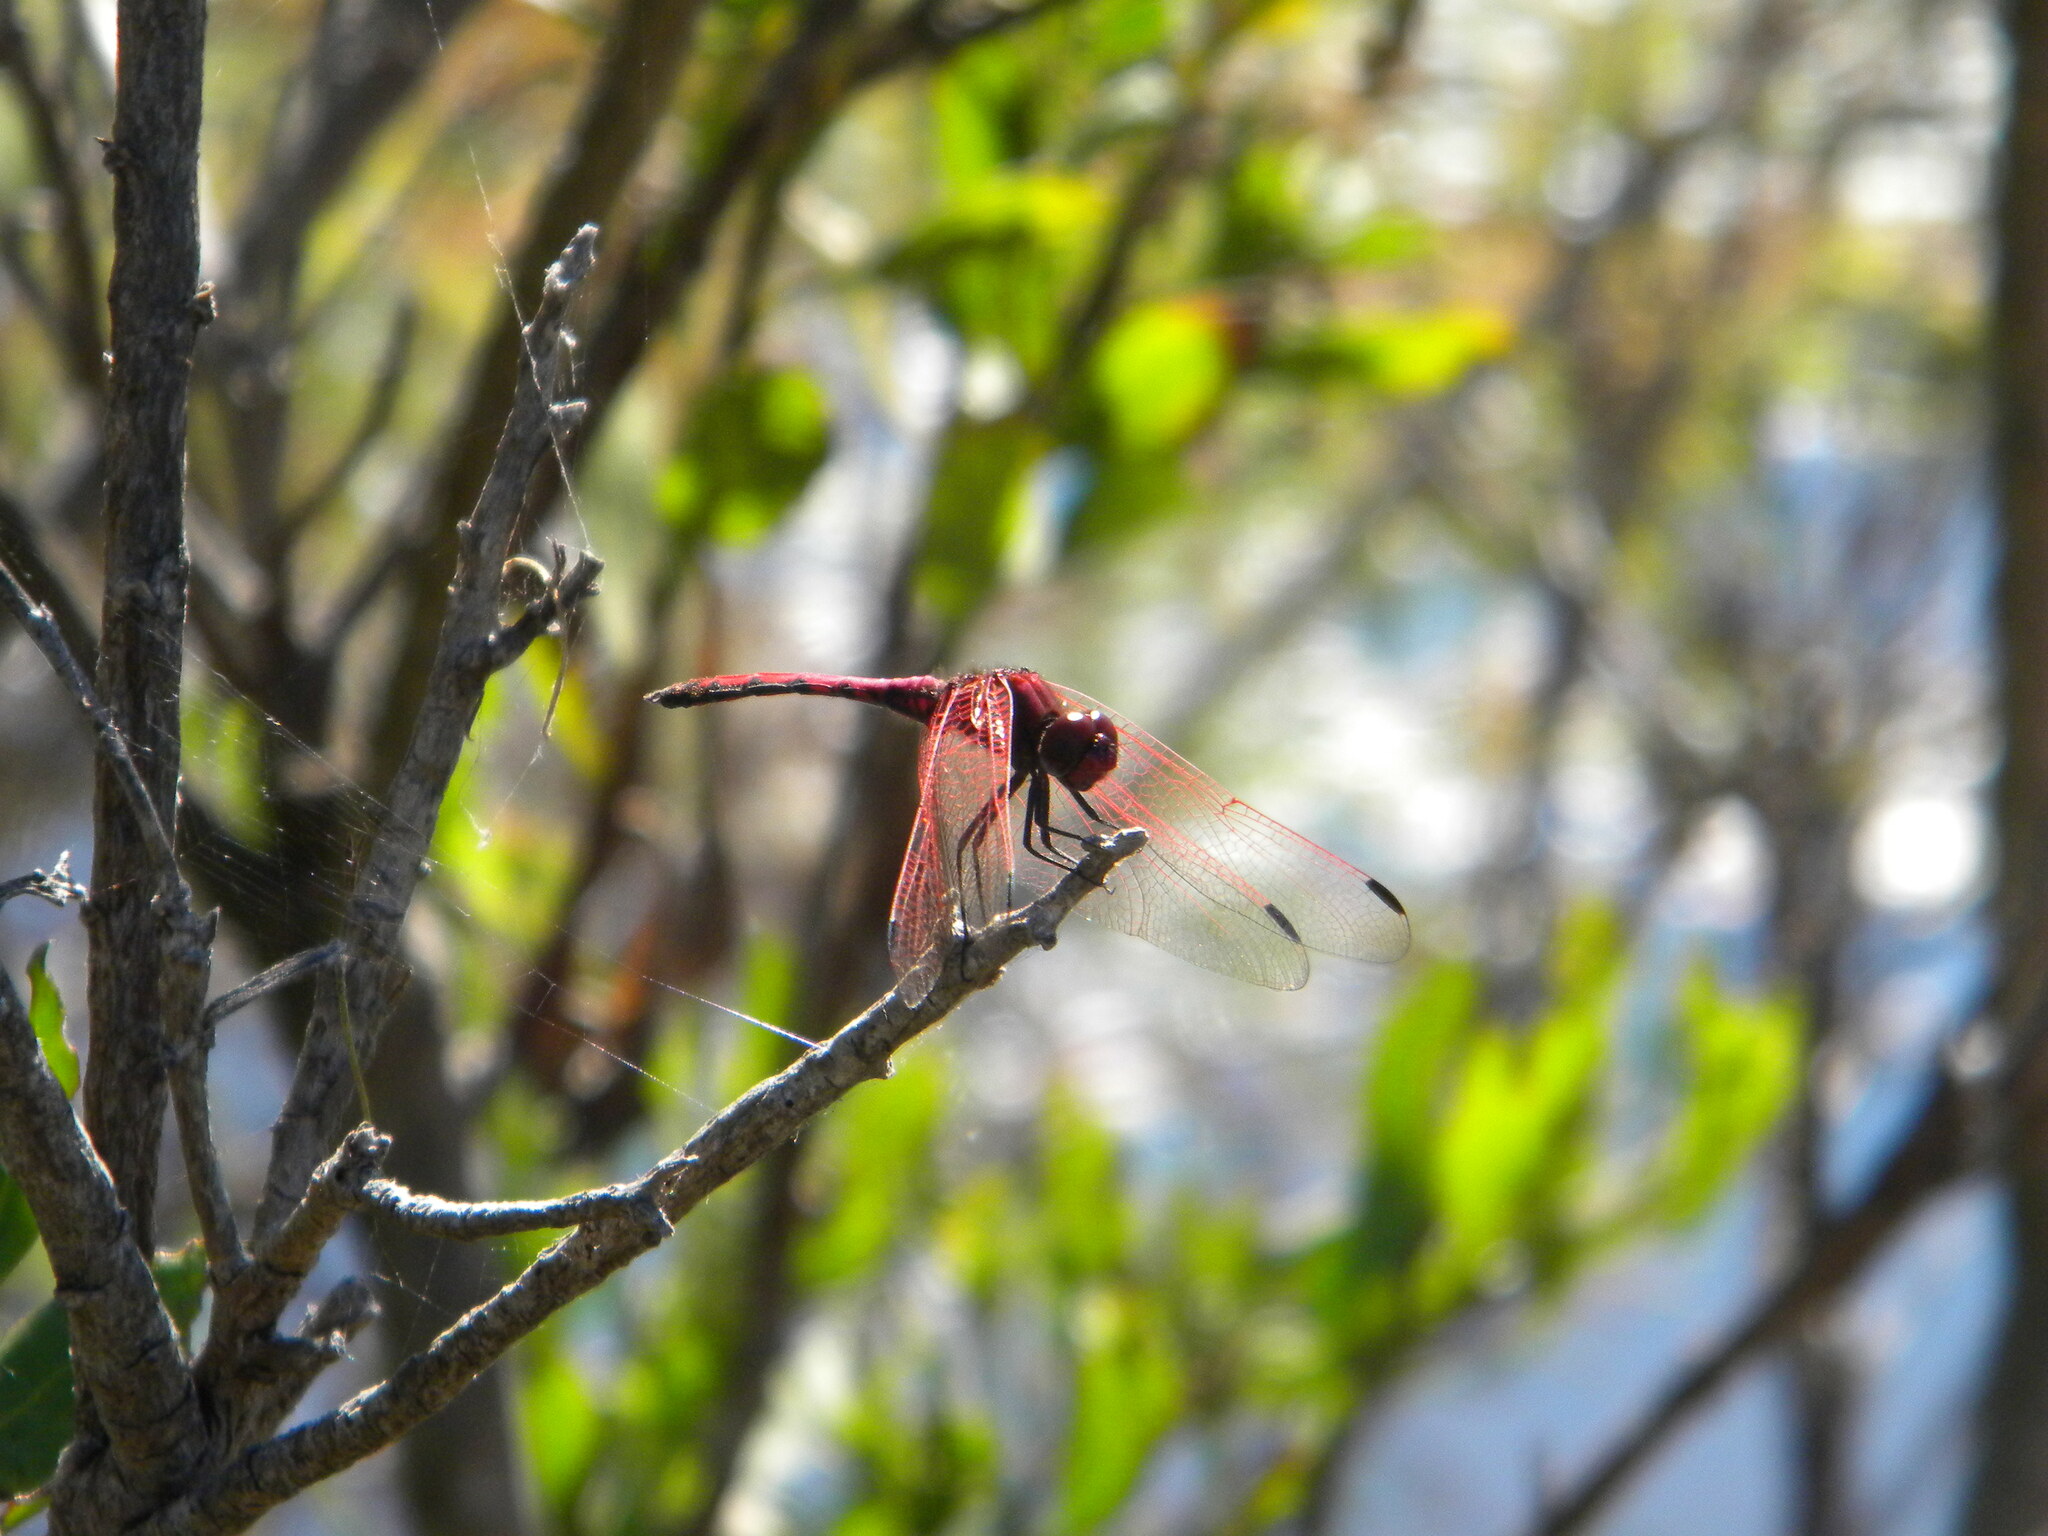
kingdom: Animalia
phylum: Arthropoda
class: Insecta
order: Odonata
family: Libellulidae
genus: Trithemis
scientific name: Trithemis arteriosa
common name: Red-veined dropwing
